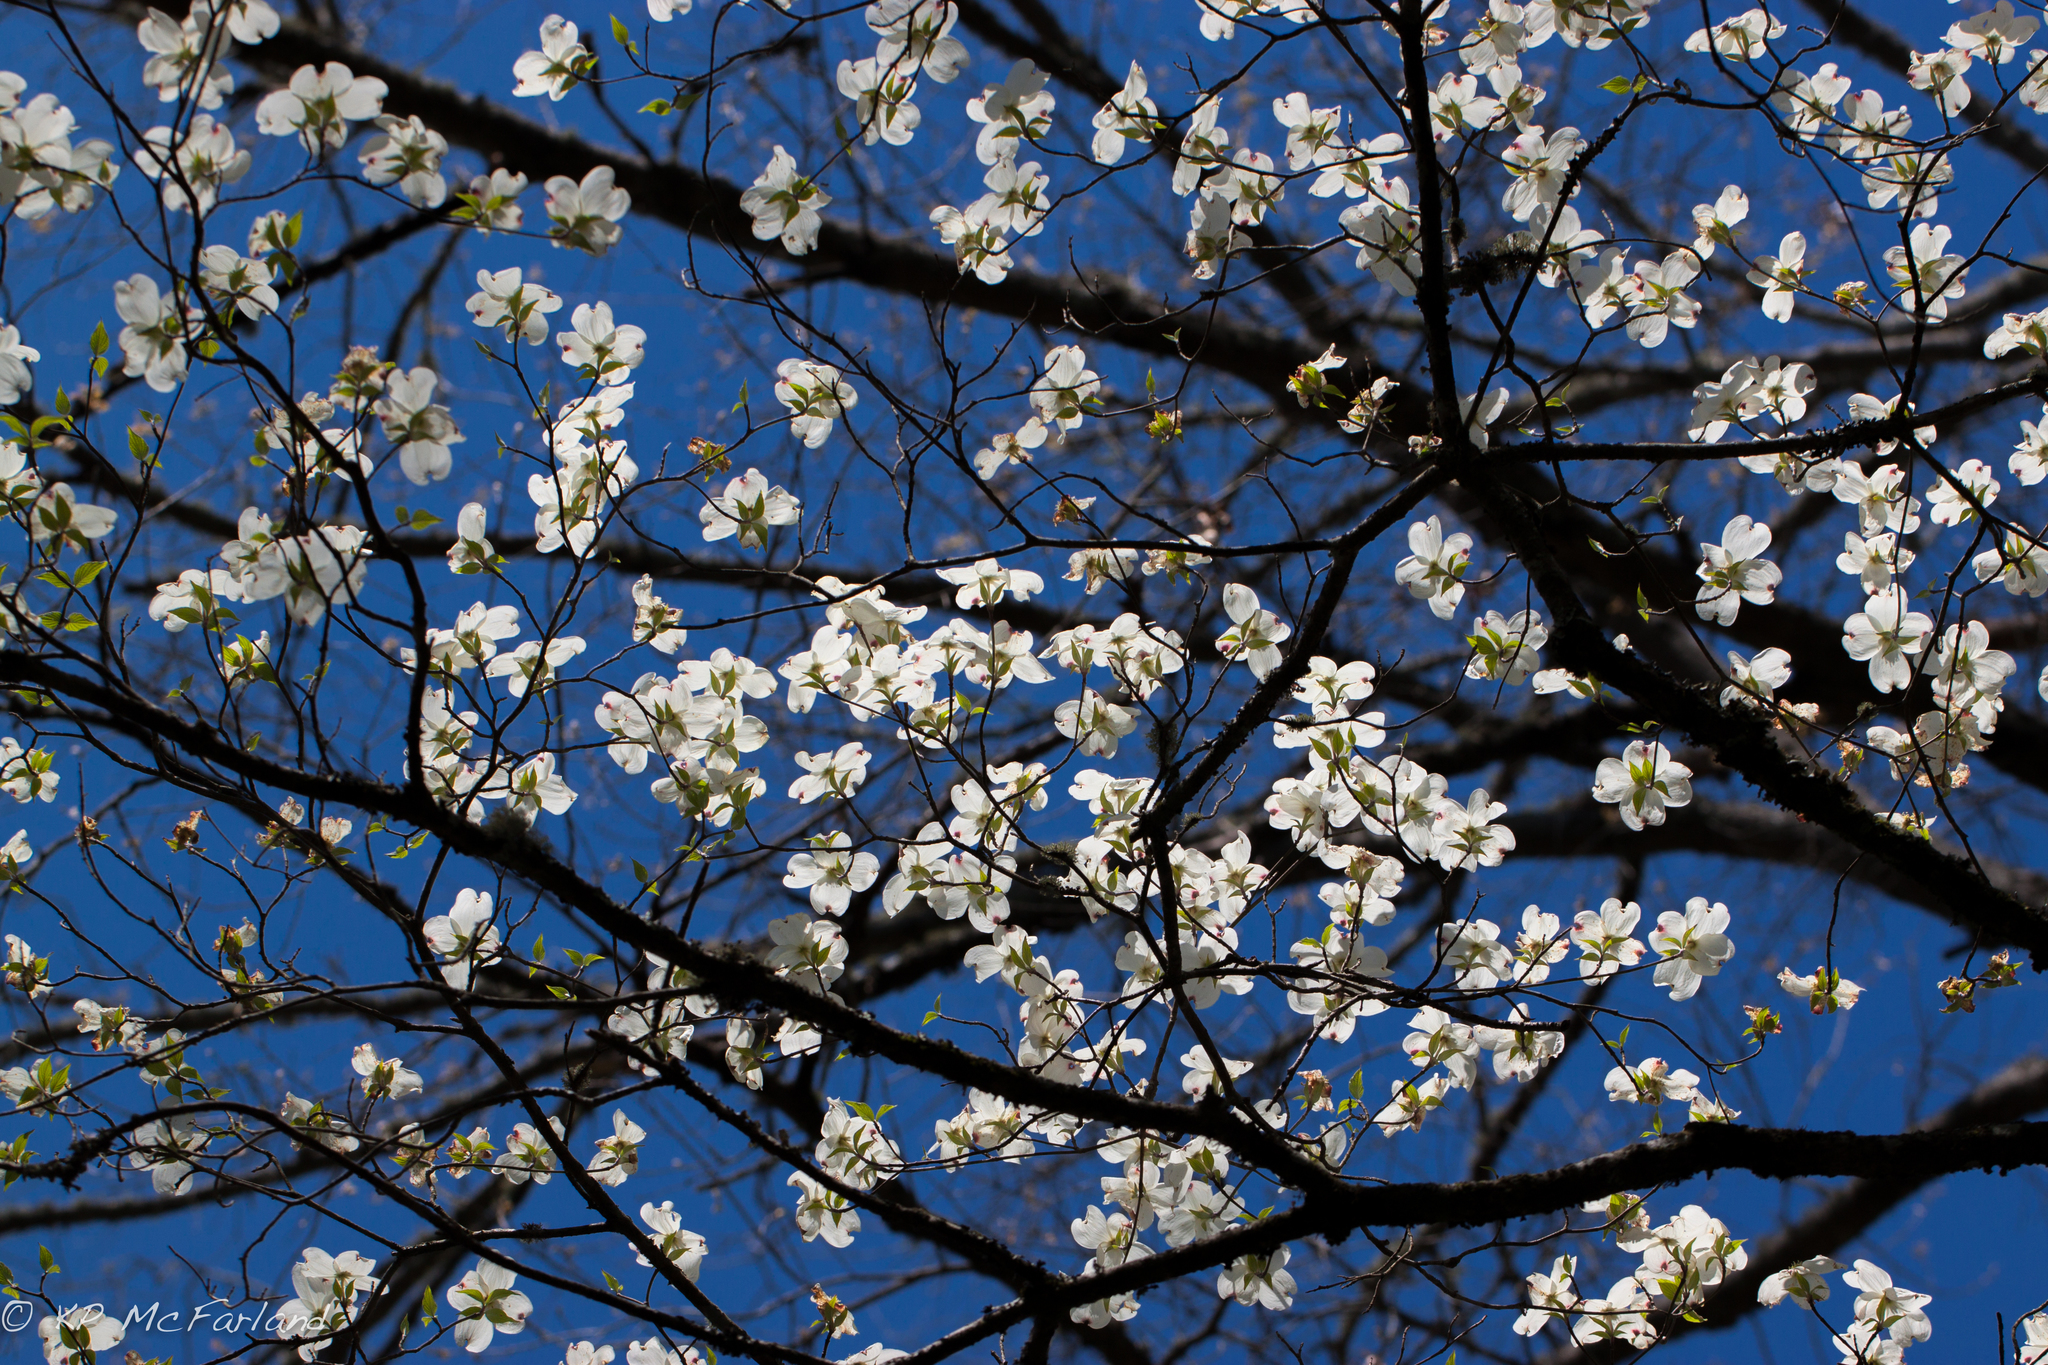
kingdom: Plantae
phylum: Tracheophyta
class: Magnoliopsida
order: Cornales
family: Cornaceae
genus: Cornus
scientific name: Cornus florida
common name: Flowering dogwood
